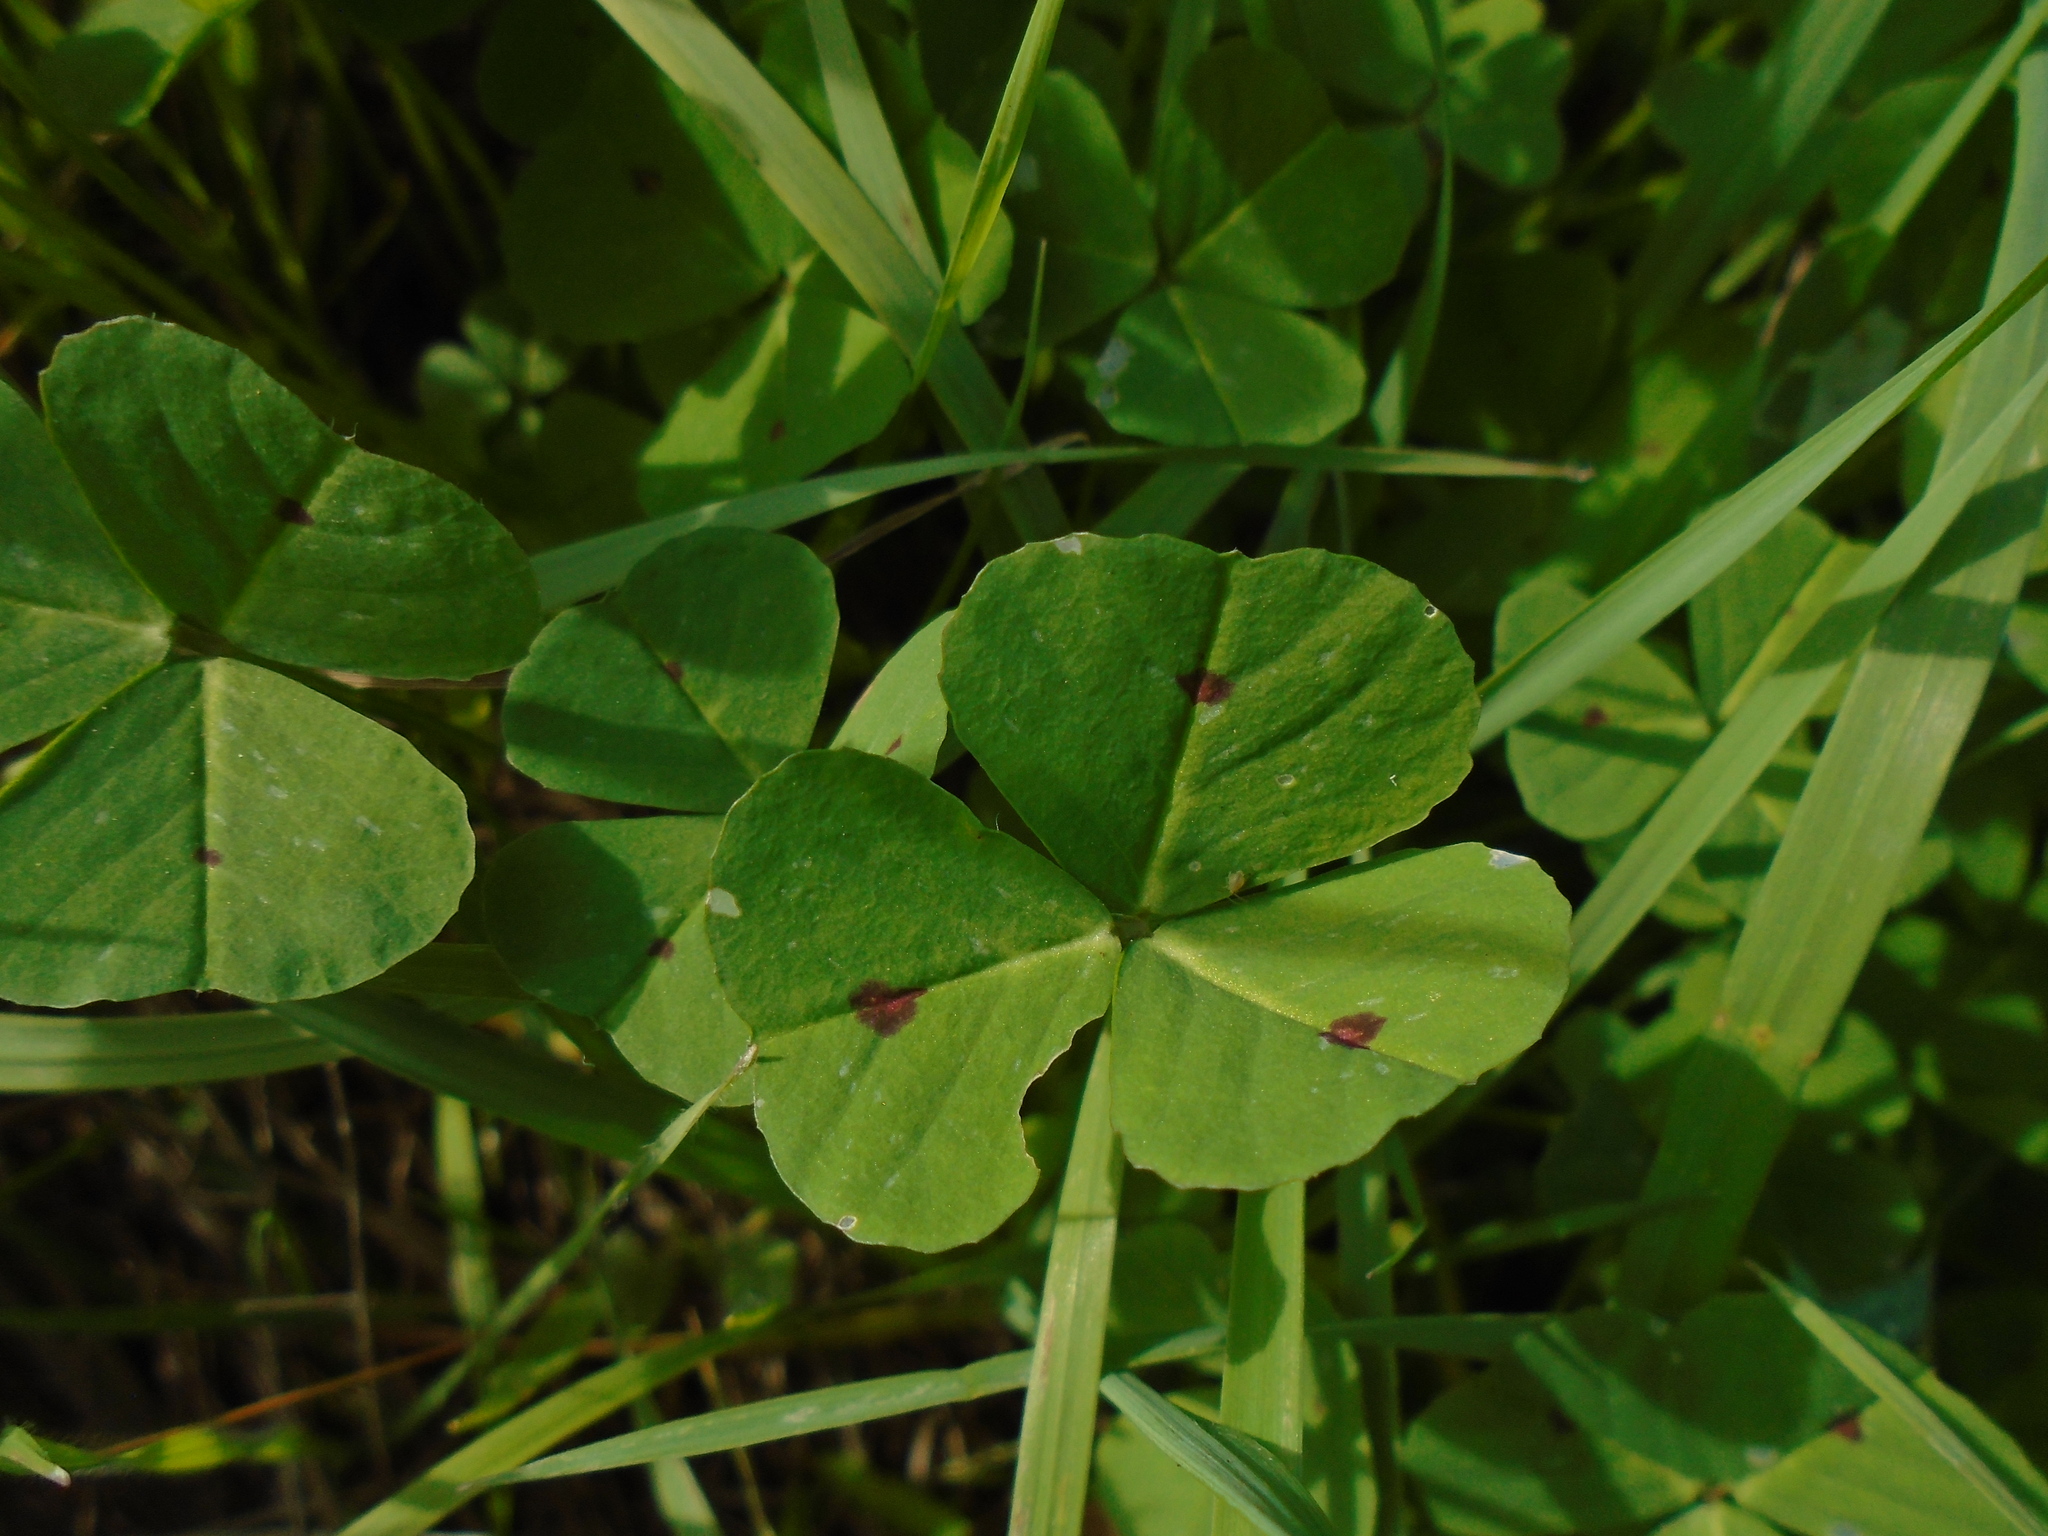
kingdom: Plantae
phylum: Tracheophyta
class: Magnoliopsida
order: Fabales
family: Fabaceae
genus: Medicago
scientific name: Medicago arabica
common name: Spotted medick
